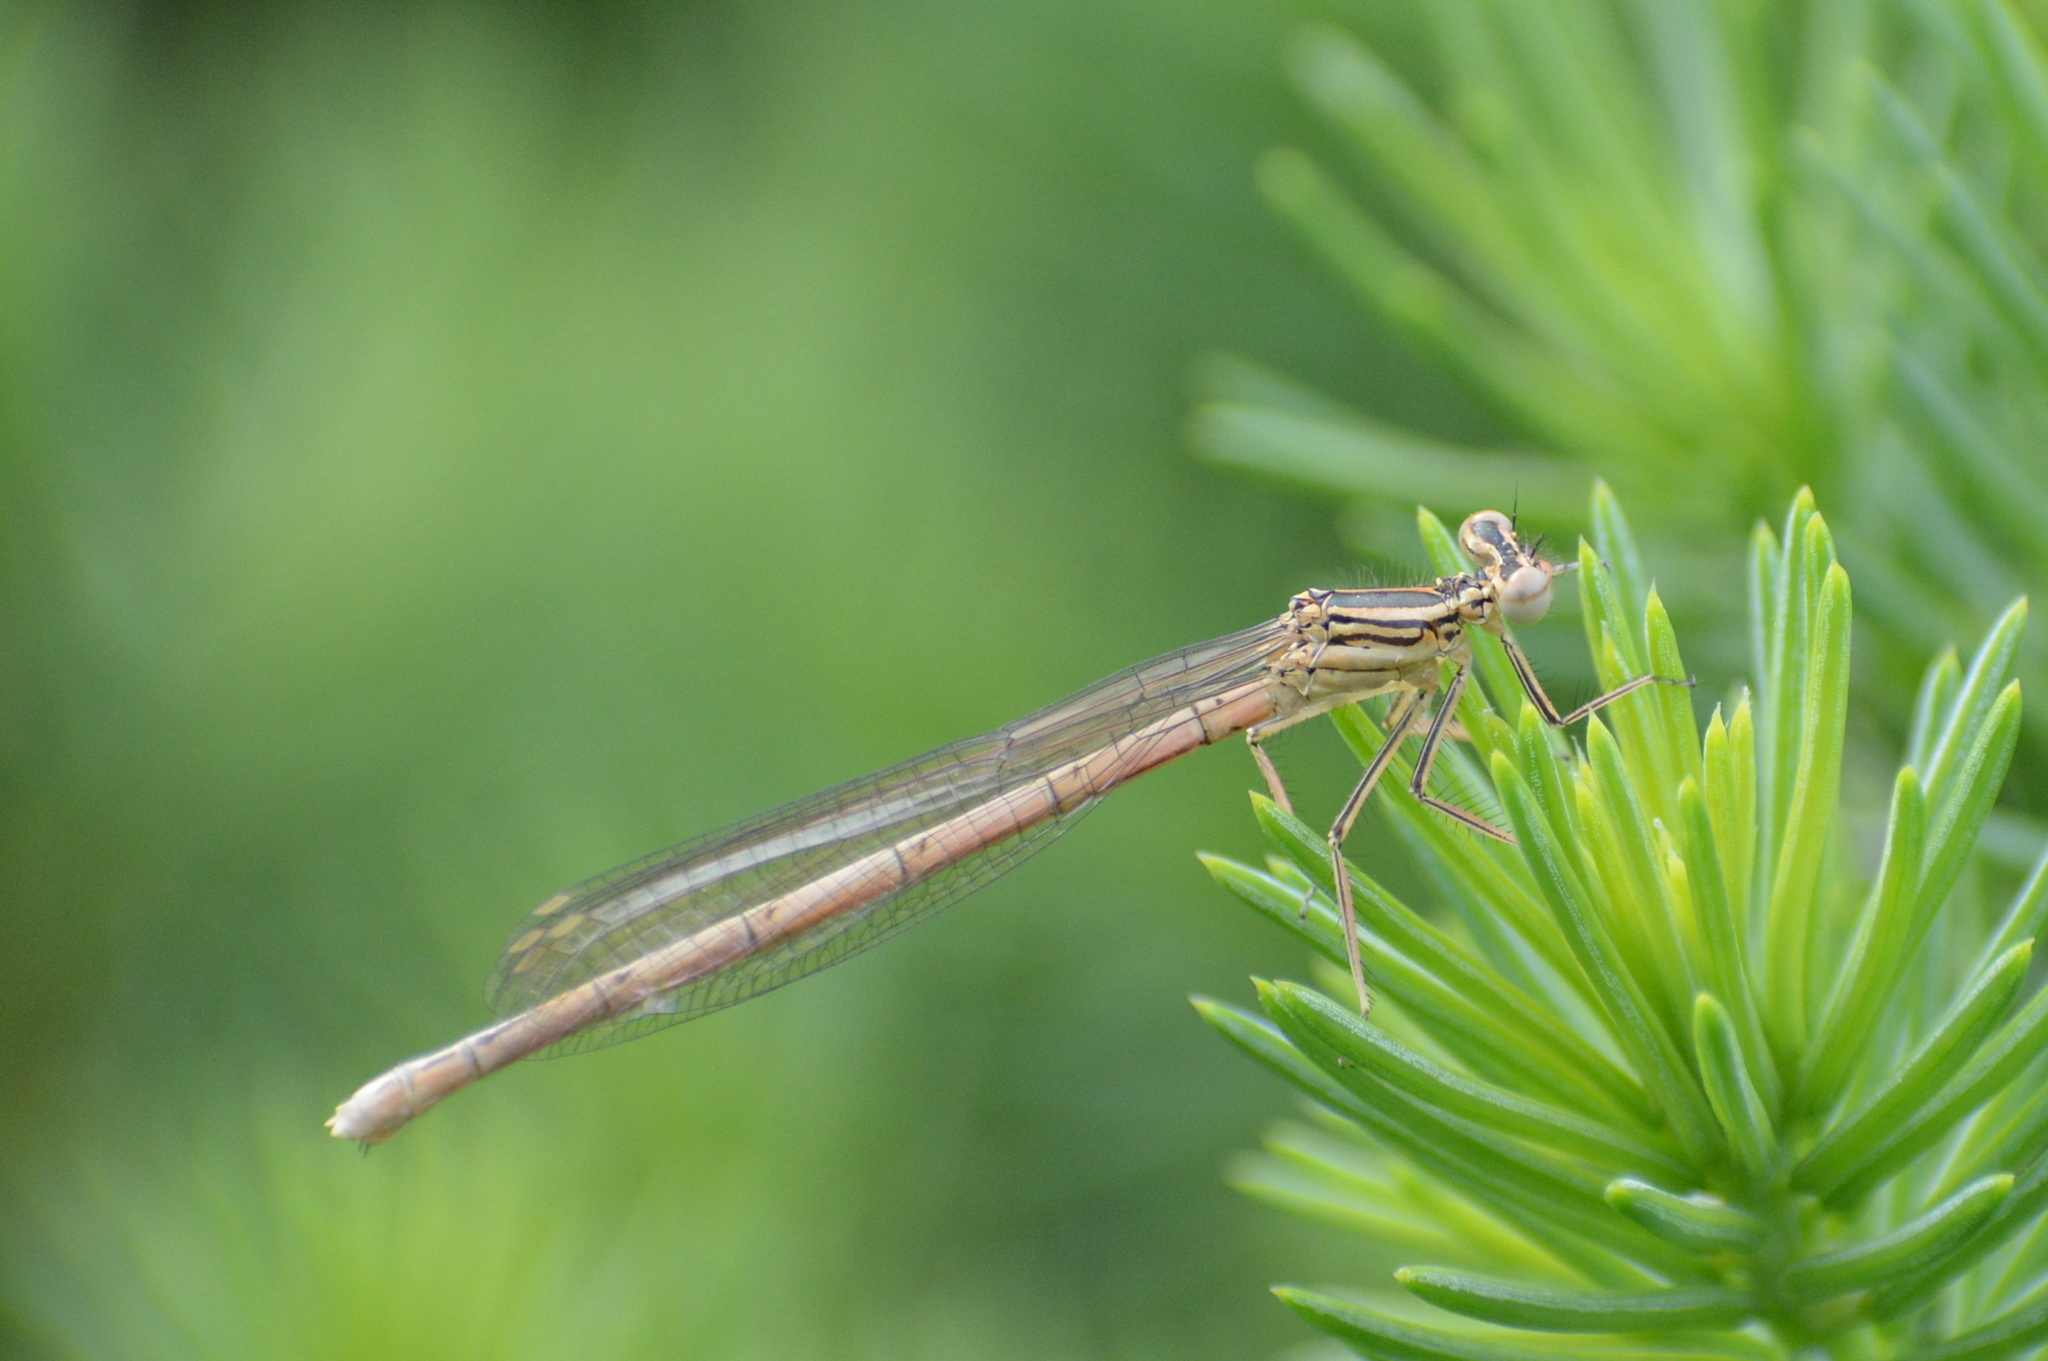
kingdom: Animalia
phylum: Arthropoda
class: Insecta
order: Odonata
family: Platycnemididae
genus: Platycnemis
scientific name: Platycnemis pennipes
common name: White-legged damselfly
